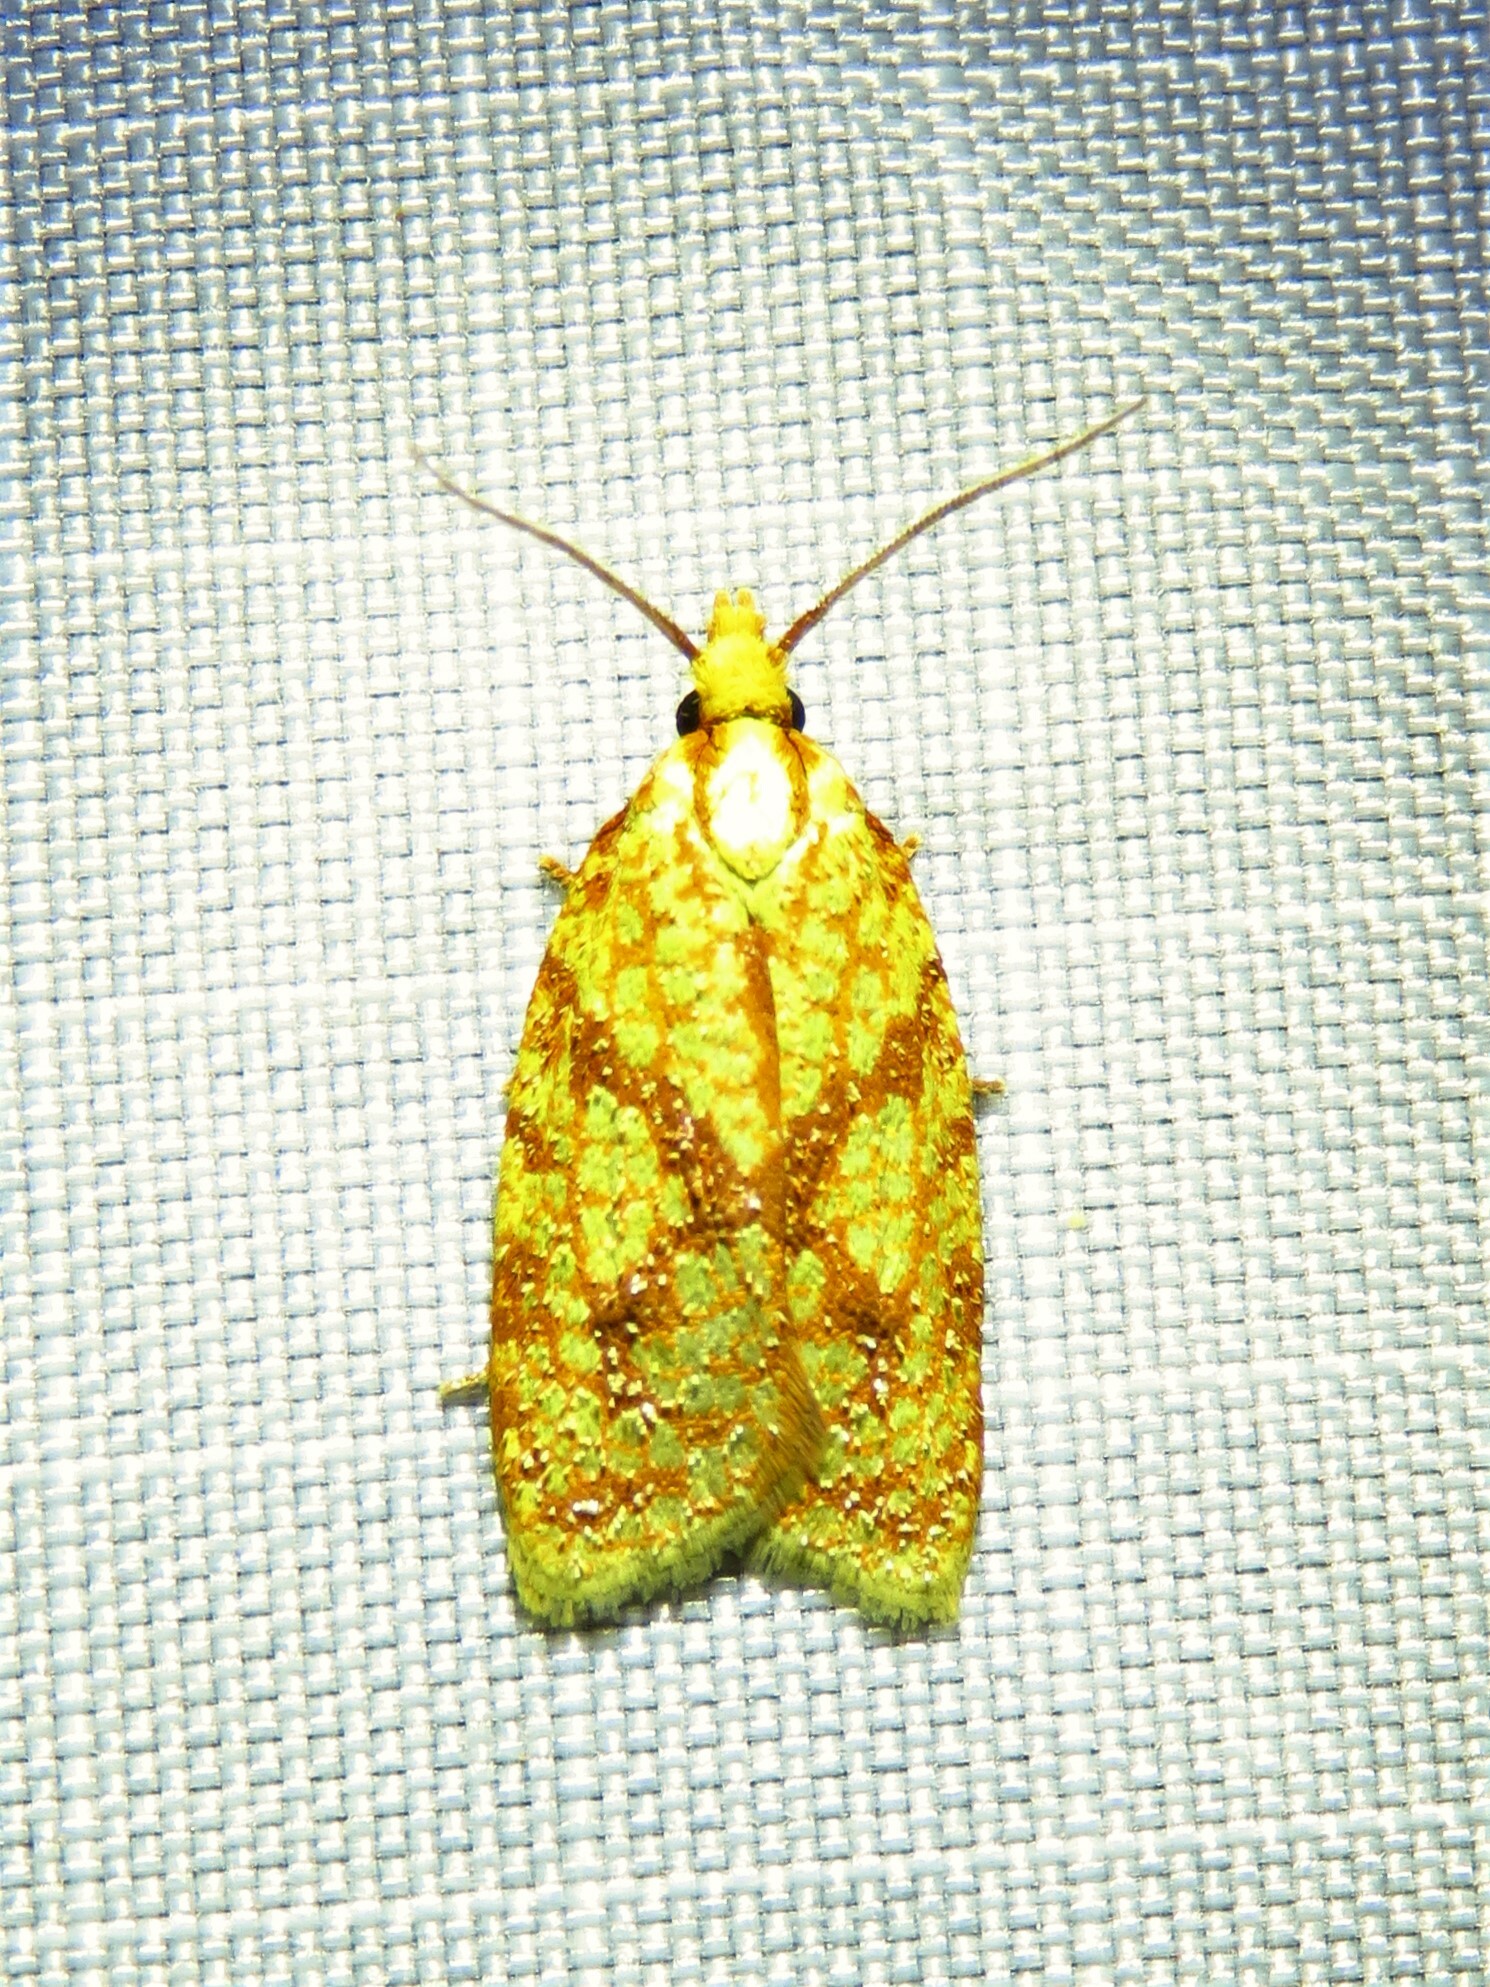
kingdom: Animalia
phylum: Arthropoda
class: Insecta
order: Lepidoptera
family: Tortricidae
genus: Sparganothis
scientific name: Sparganothis sulfureana
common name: Sparganothis fruitworm moth
